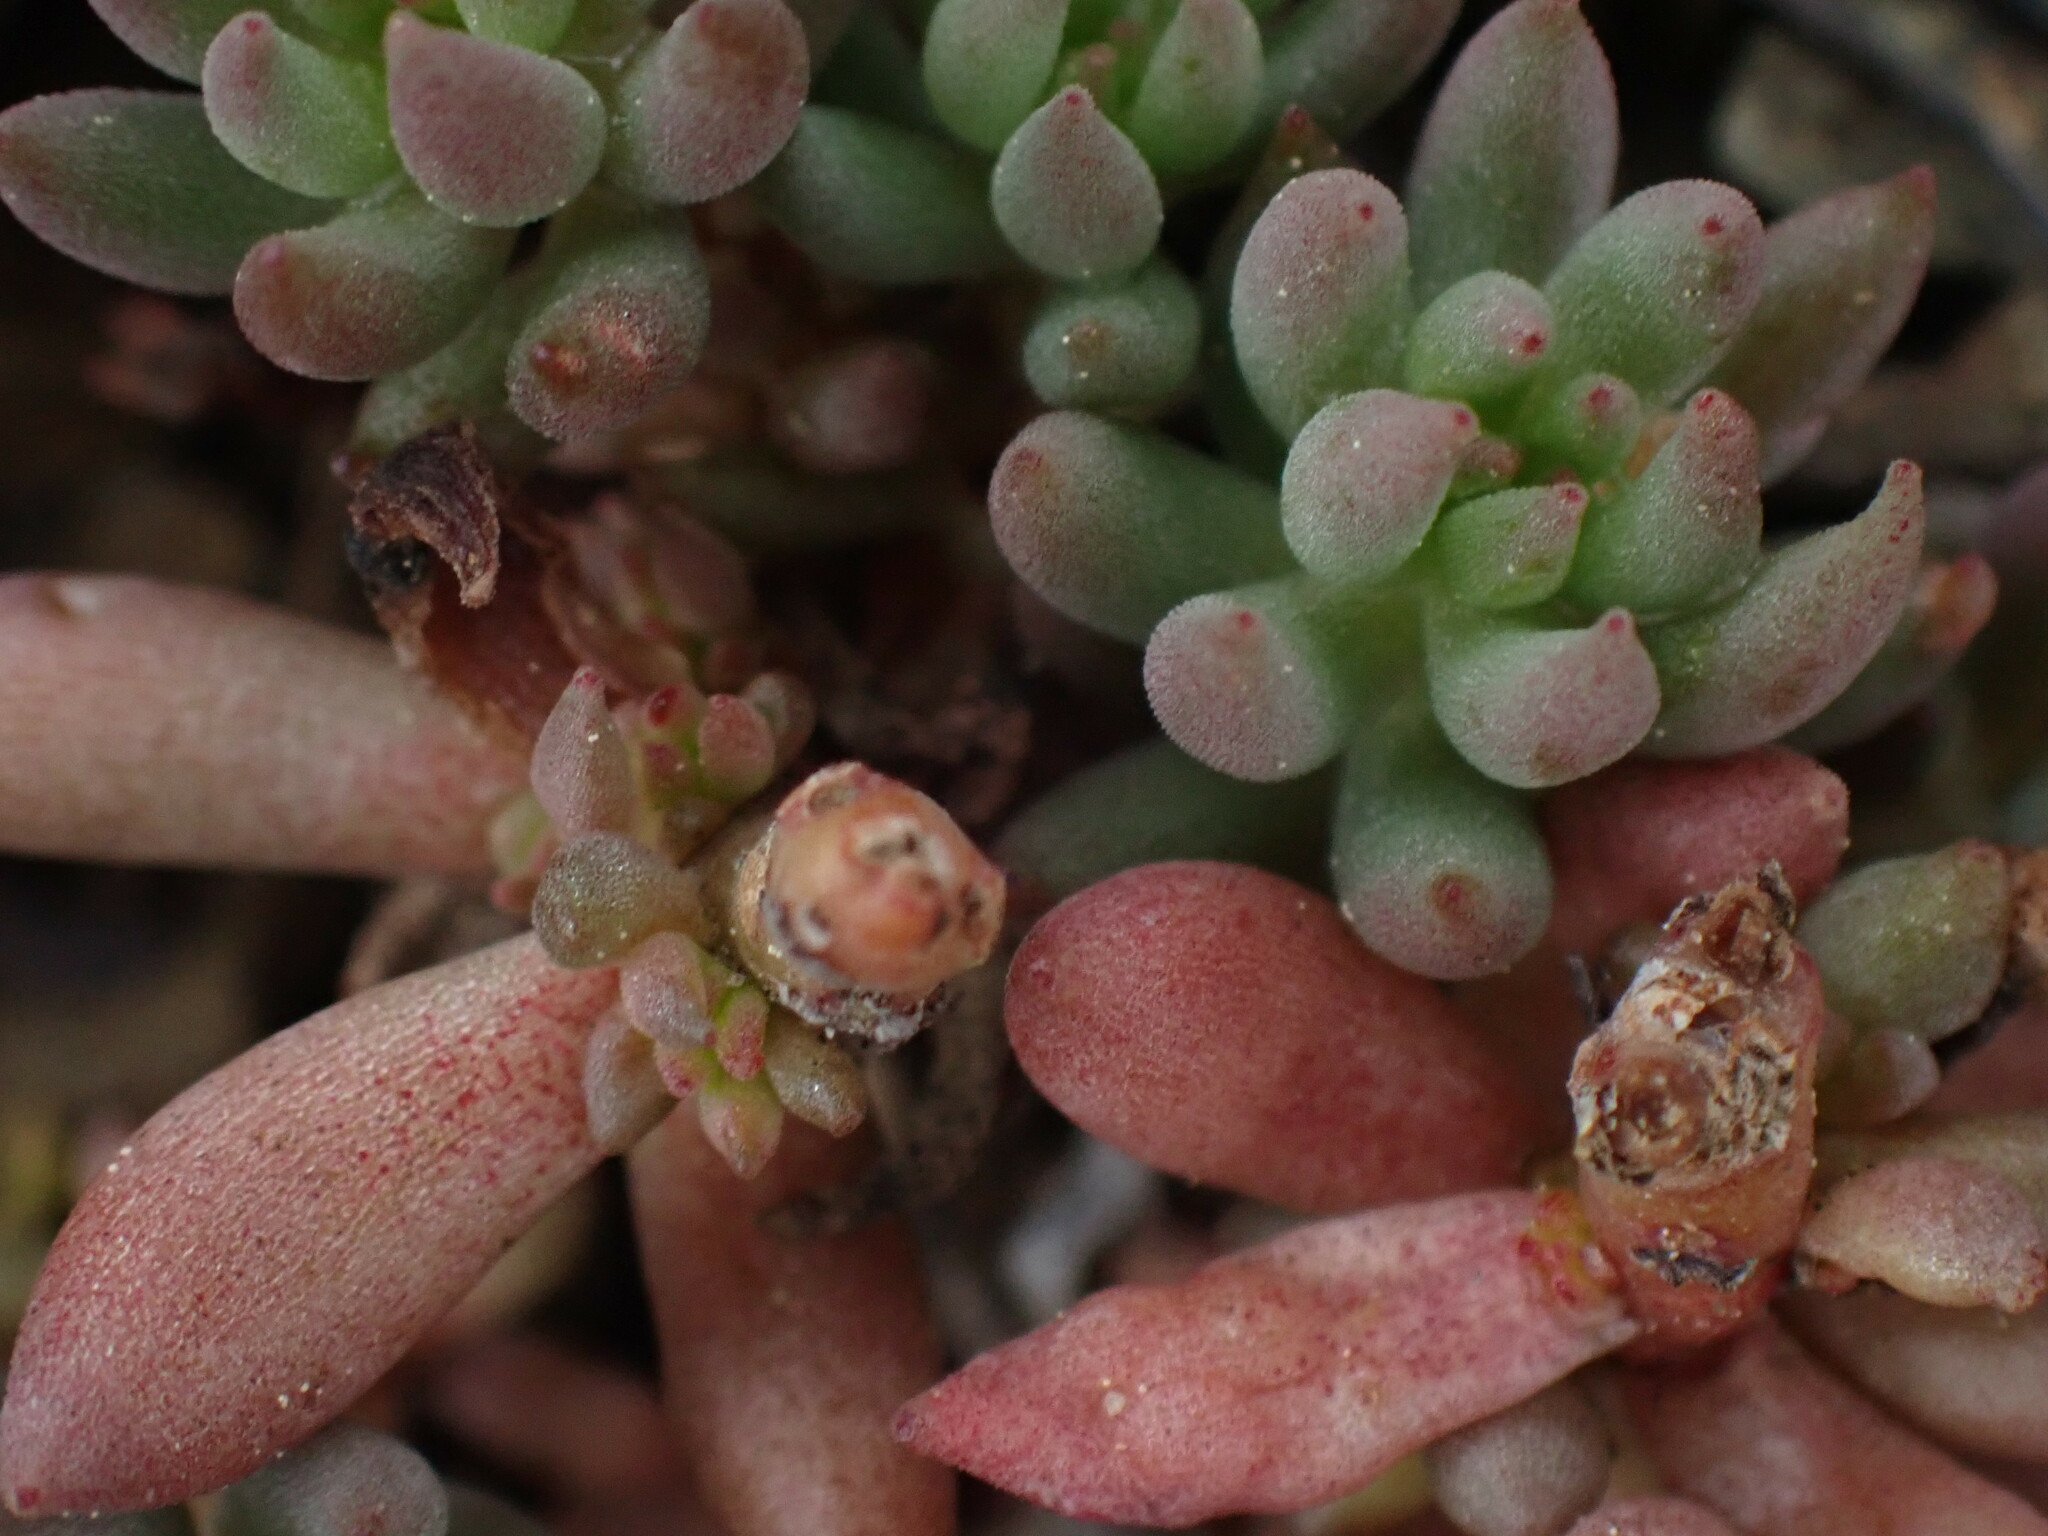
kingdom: Plantae
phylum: Tracheophyta
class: Magnoliopsida
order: Saxifragales
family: Crassulaceae
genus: Sedum
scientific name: Sedum lanceolatum
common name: Common stonecrop
